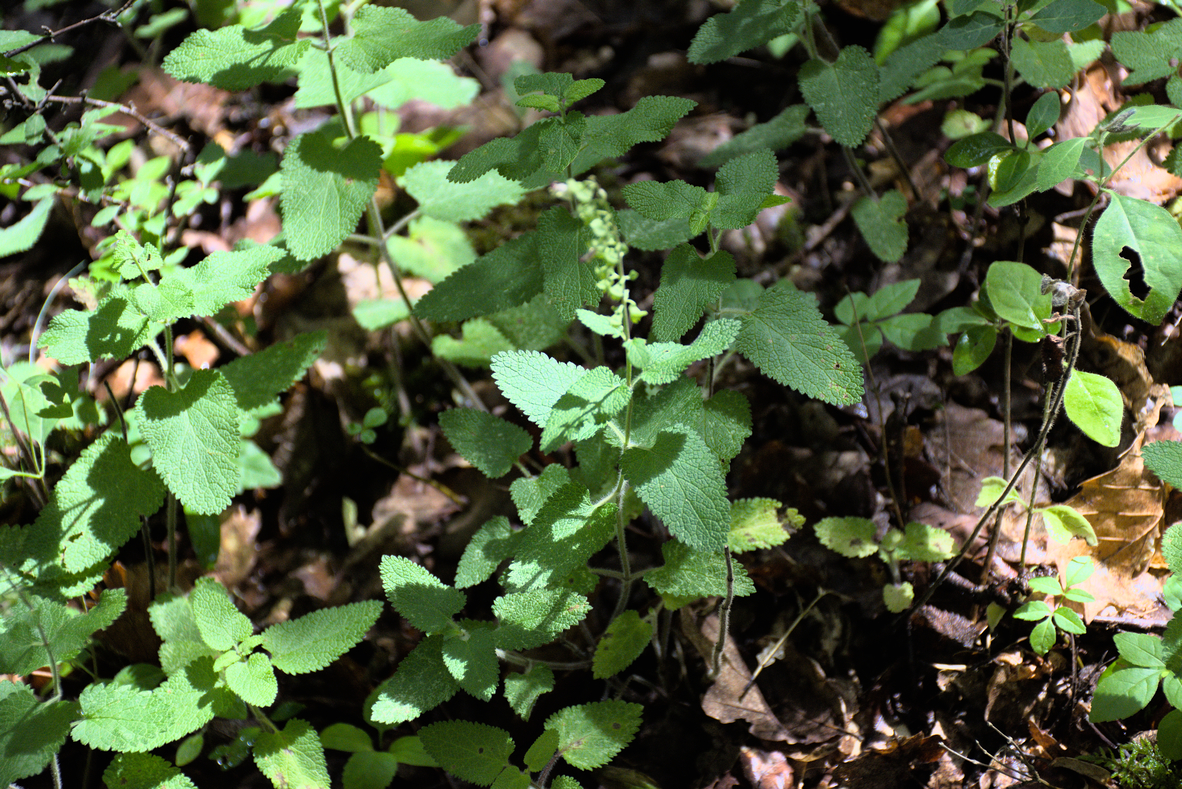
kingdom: Plantae
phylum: Tracheophyta
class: Magnoliopsida
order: Lamiales
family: Lamiaceae
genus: Teucrium
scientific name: Teucrium scorodonia
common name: Woodland germander
